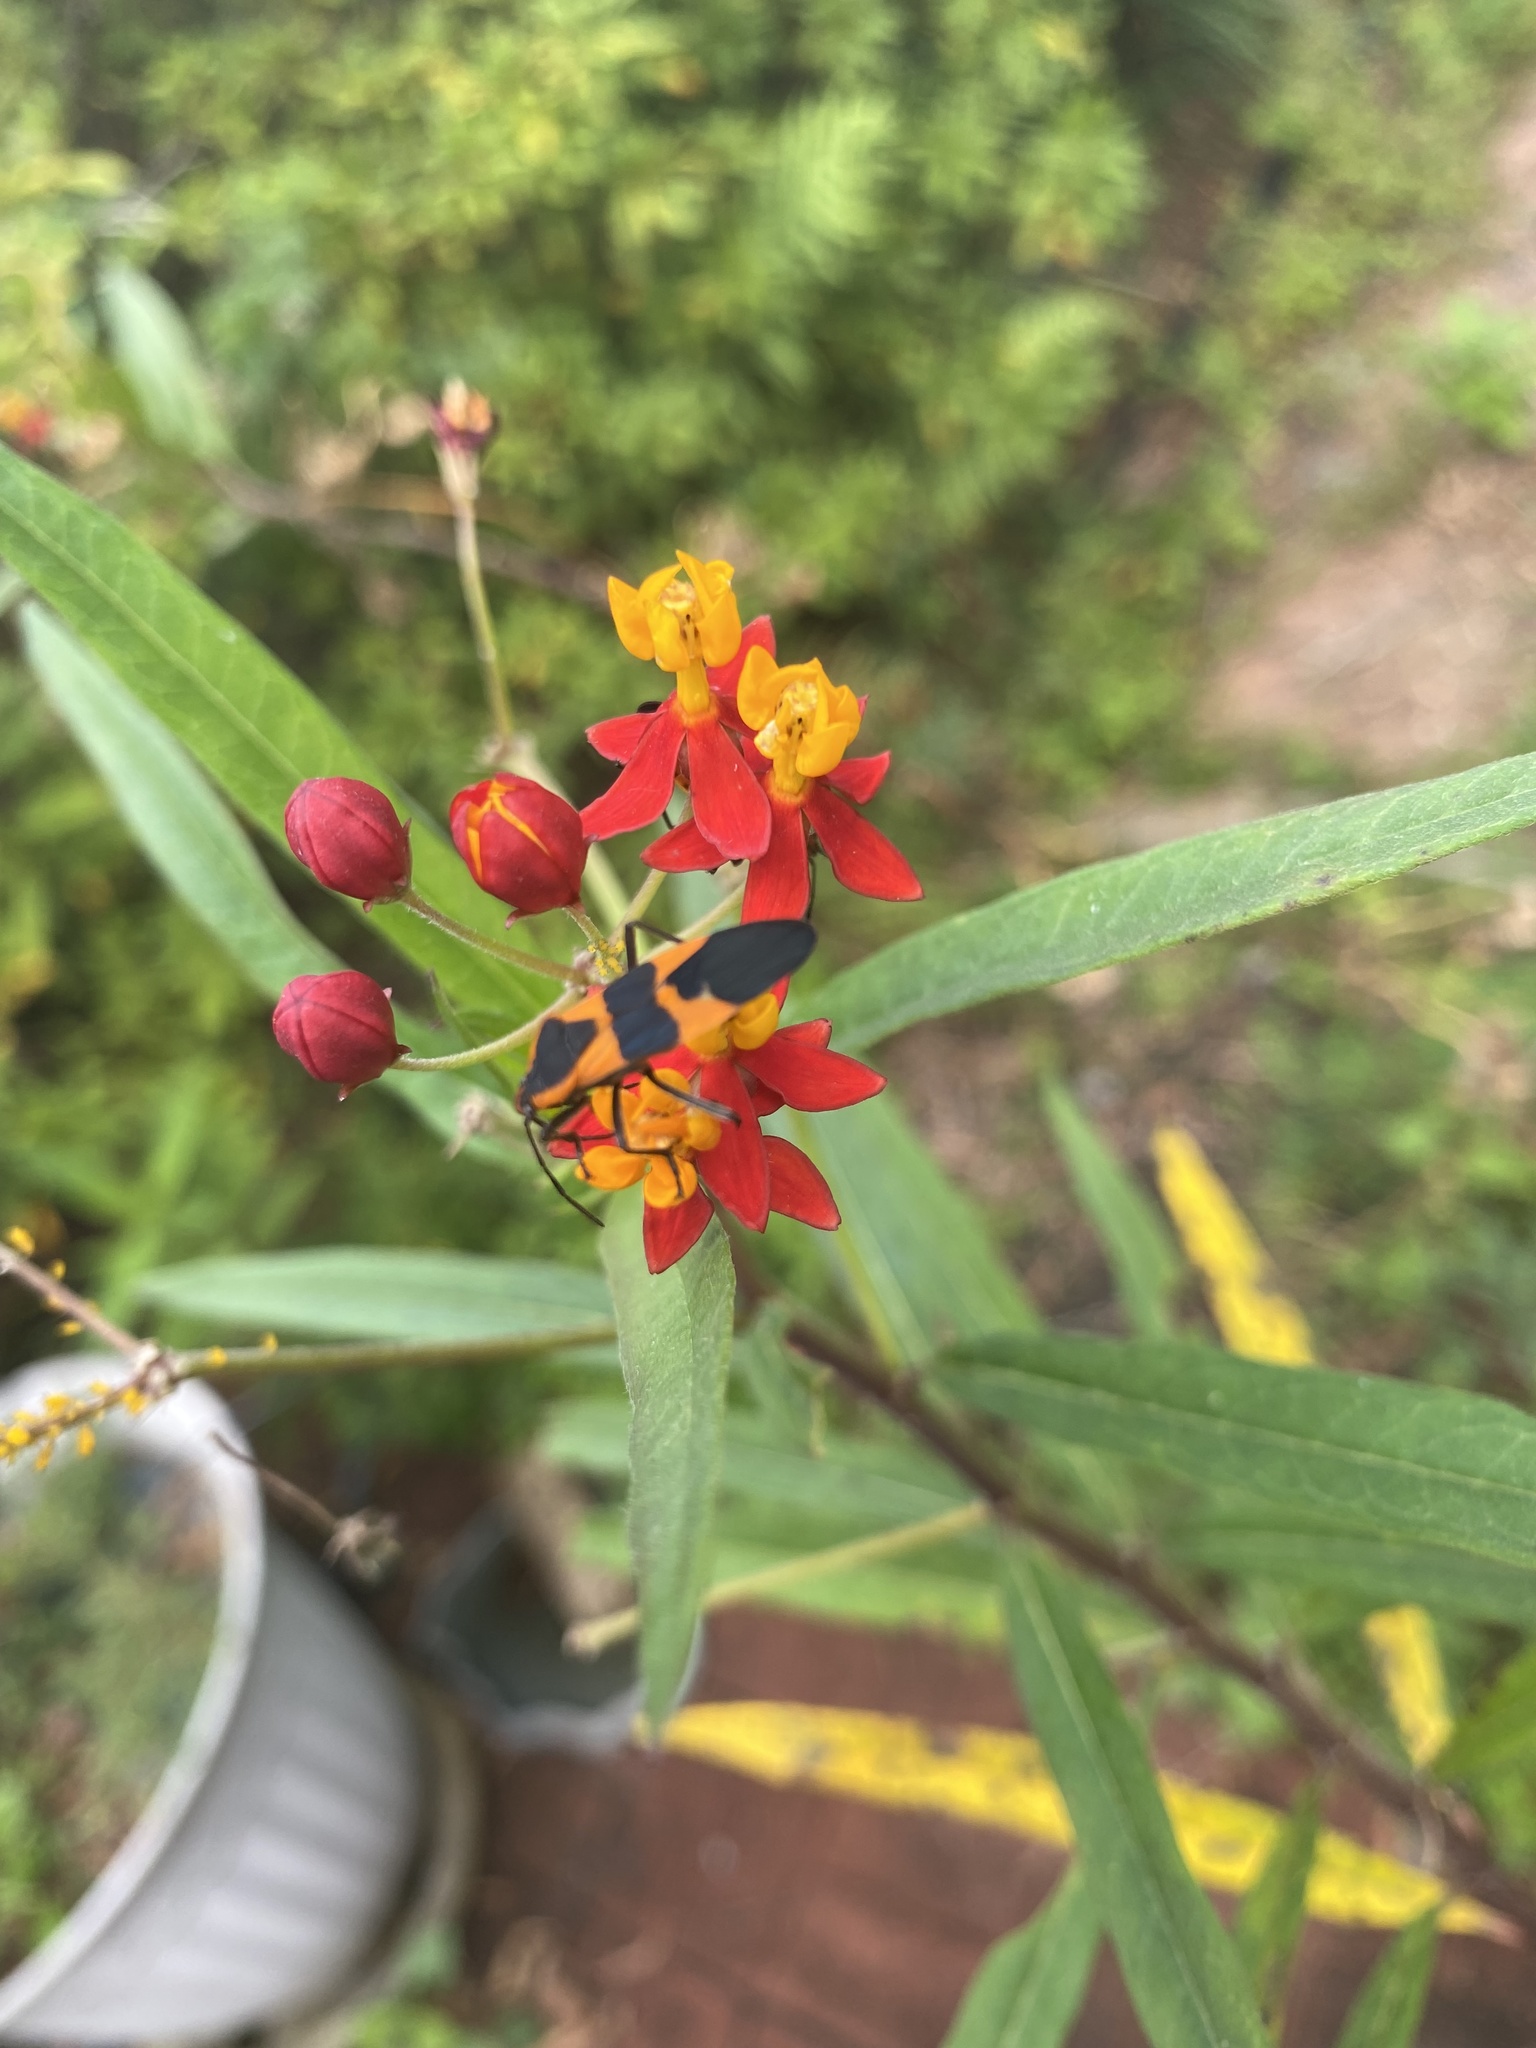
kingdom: Animalia
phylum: Arthropoda
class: Insecta
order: Hemiptera
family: Lygaeidae
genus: Oncopeltus
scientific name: Oncopeltus fasciatus
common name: Large milkweed bug
